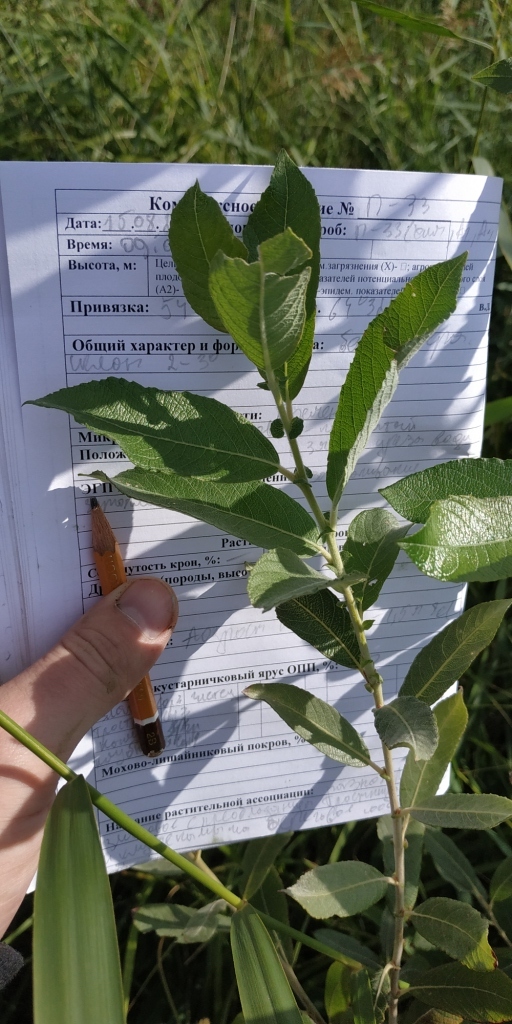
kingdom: Plantae
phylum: Tracheophyta
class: Magnoliopsida
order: Malpighiales
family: Salicaceae
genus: Salix
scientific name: Salix caprea
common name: Goat willow
